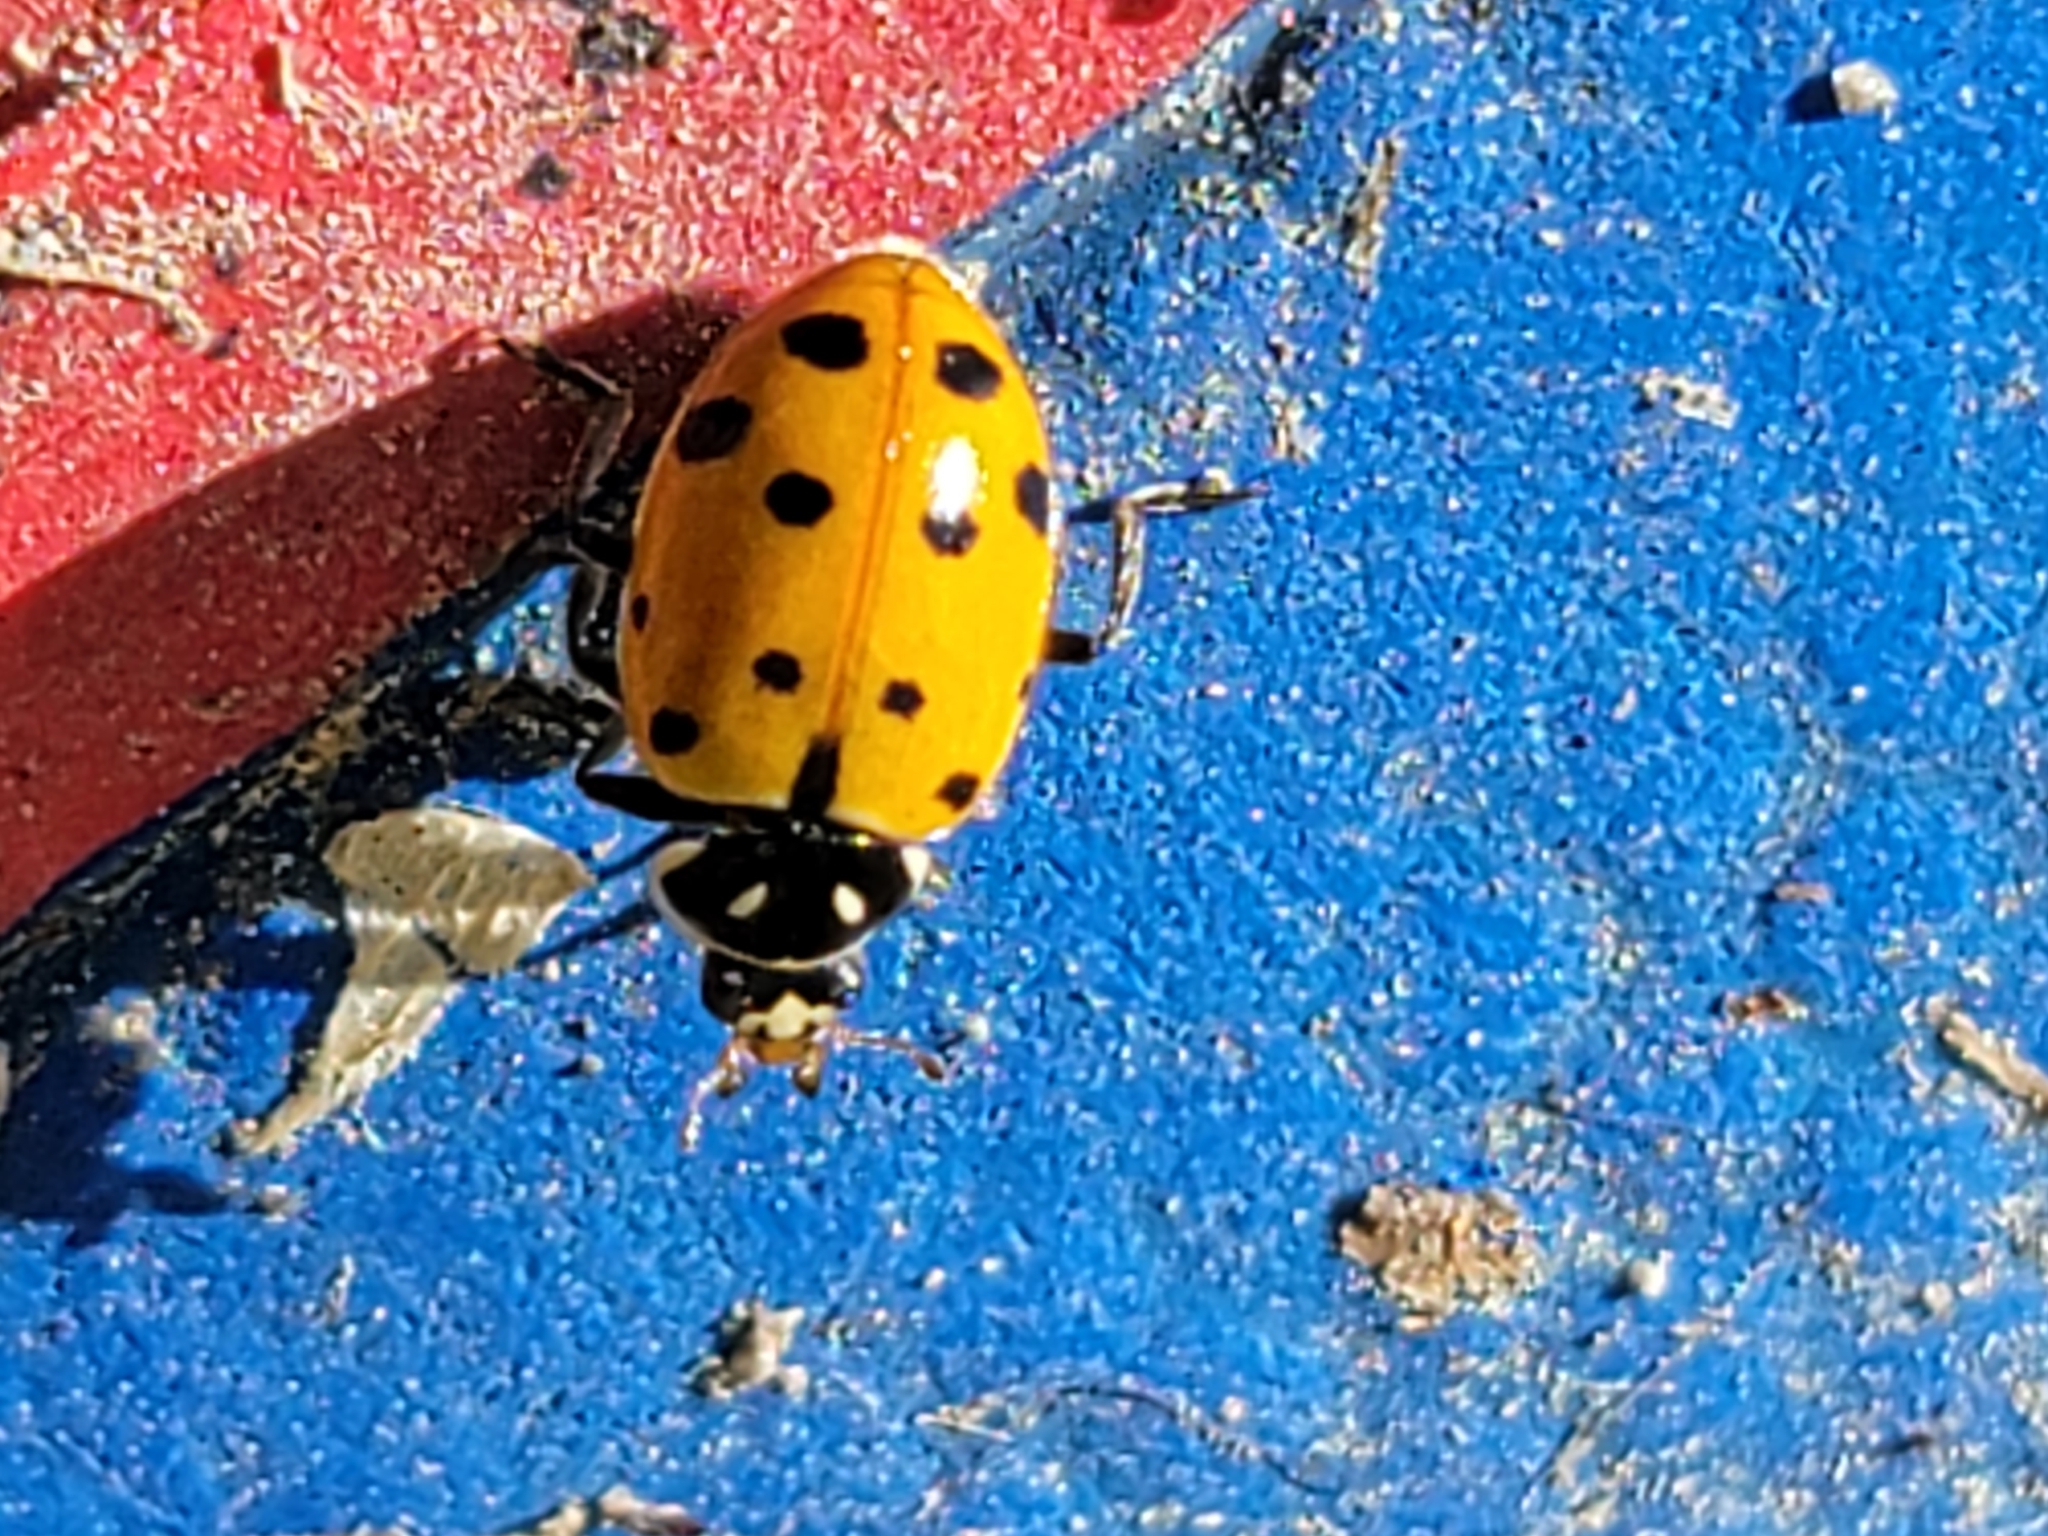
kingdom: Animalia
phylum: Arthropoda
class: Insecta
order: Coleoptera
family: Coccinellidae
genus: Hippodamia
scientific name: Hippodamia convergens
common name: Convergent lady beetle
